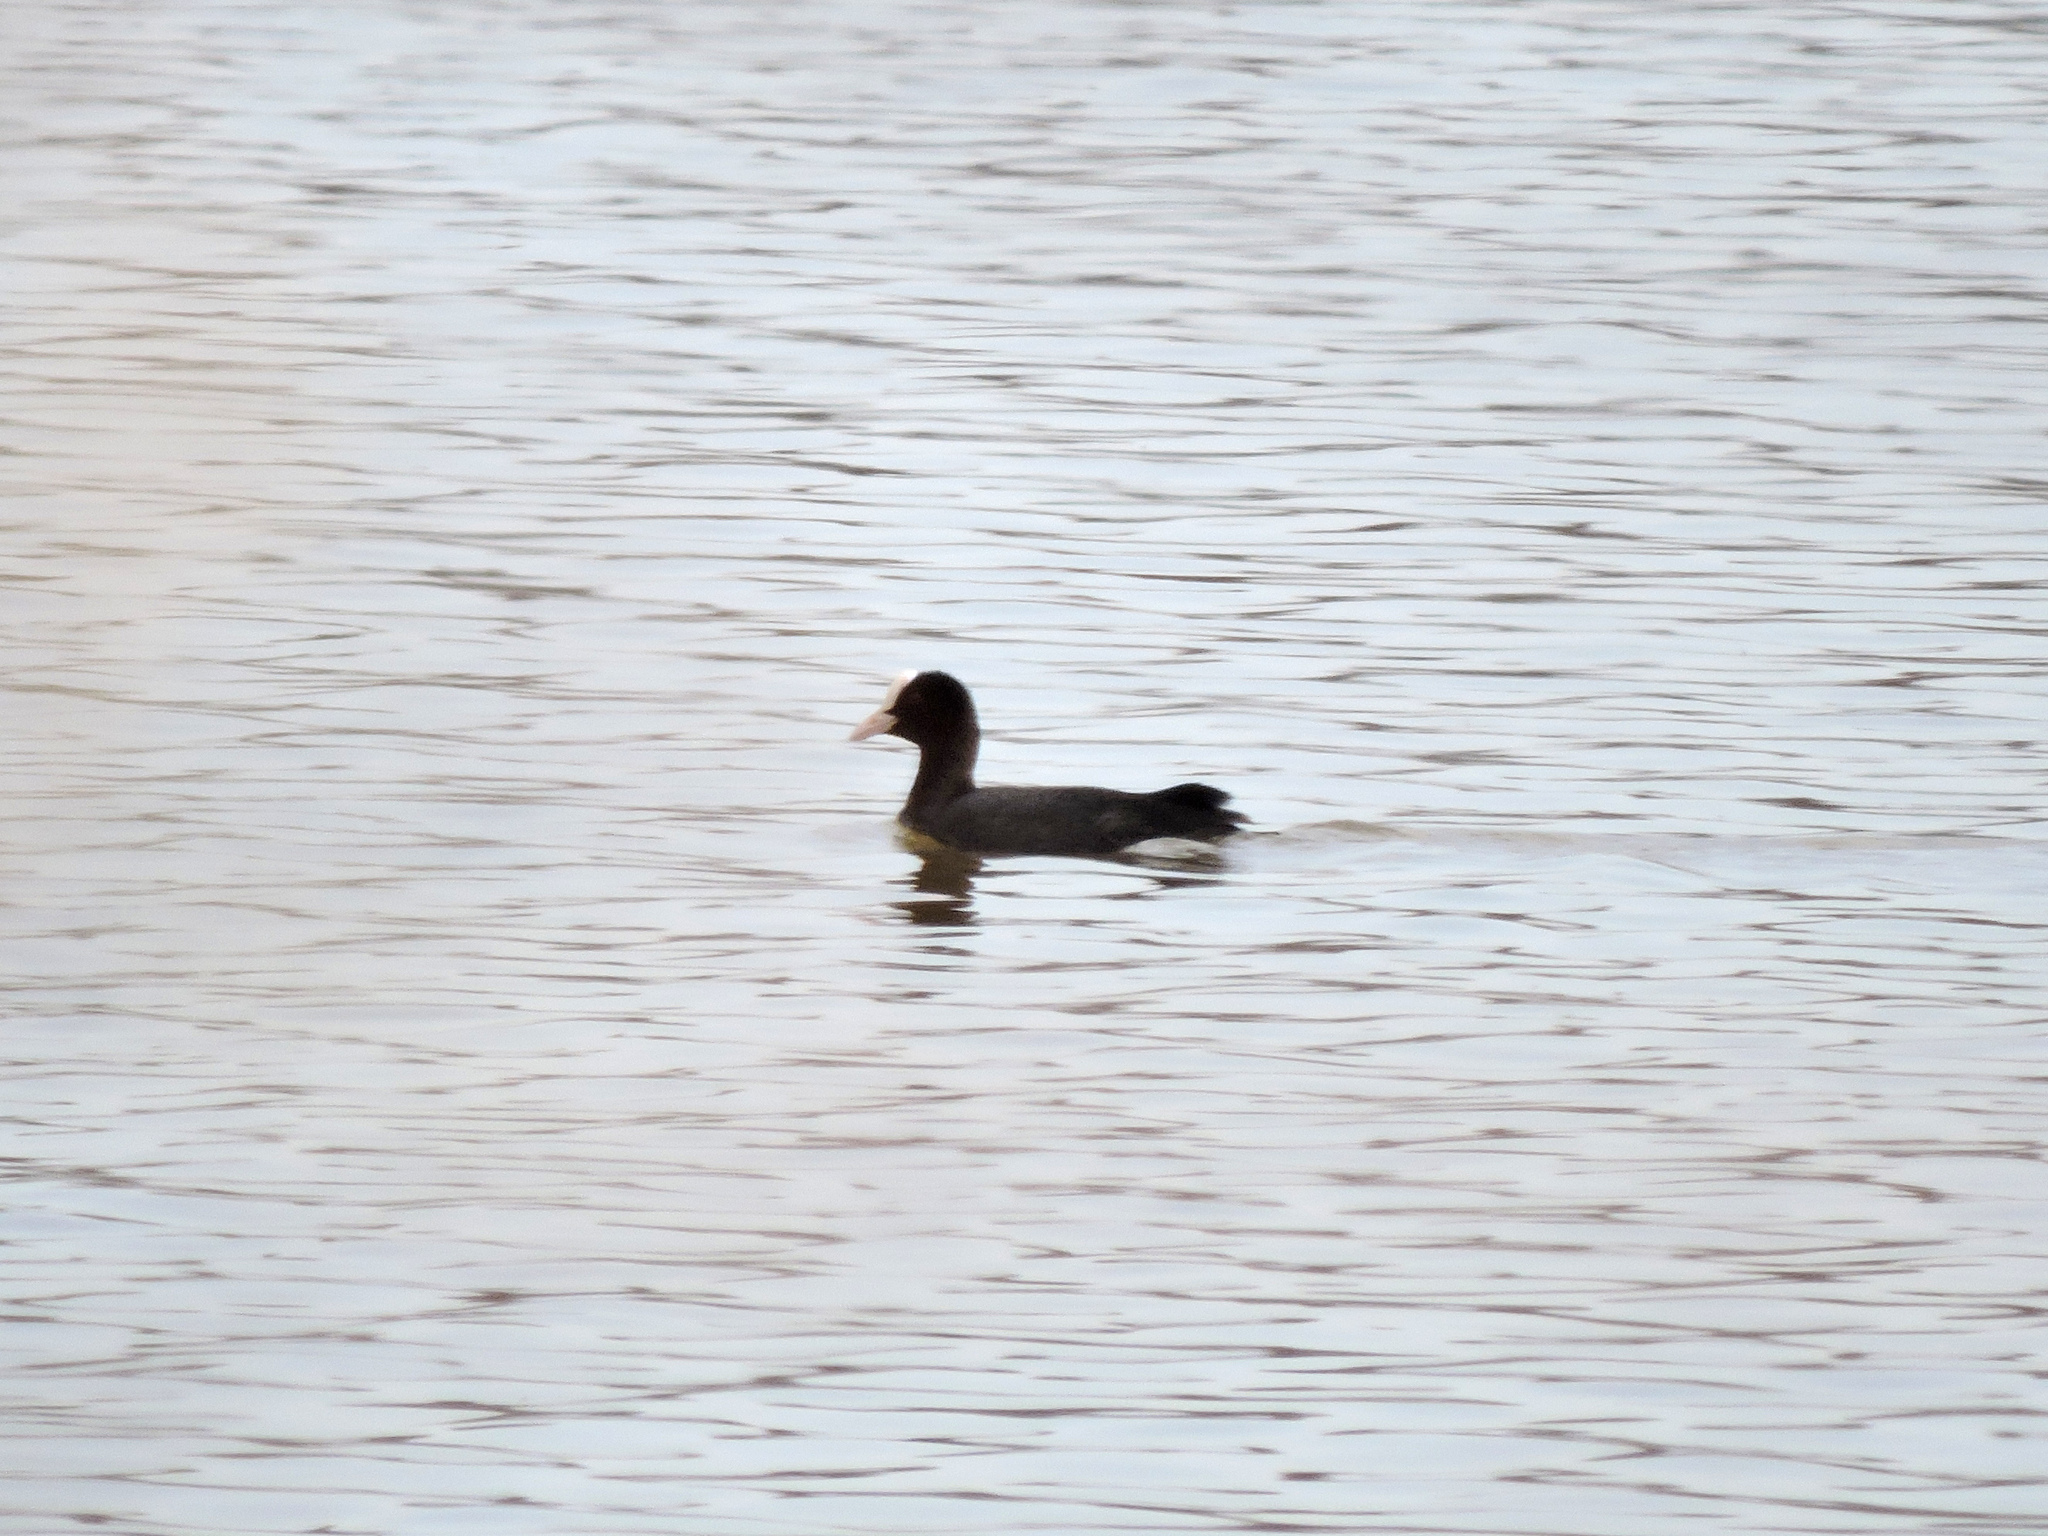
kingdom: Animalia
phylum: Chordata
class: Aves
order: Gruiformes
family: Rallidae
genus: Fulica
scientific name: Fulica atra
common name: Eurasian coot
